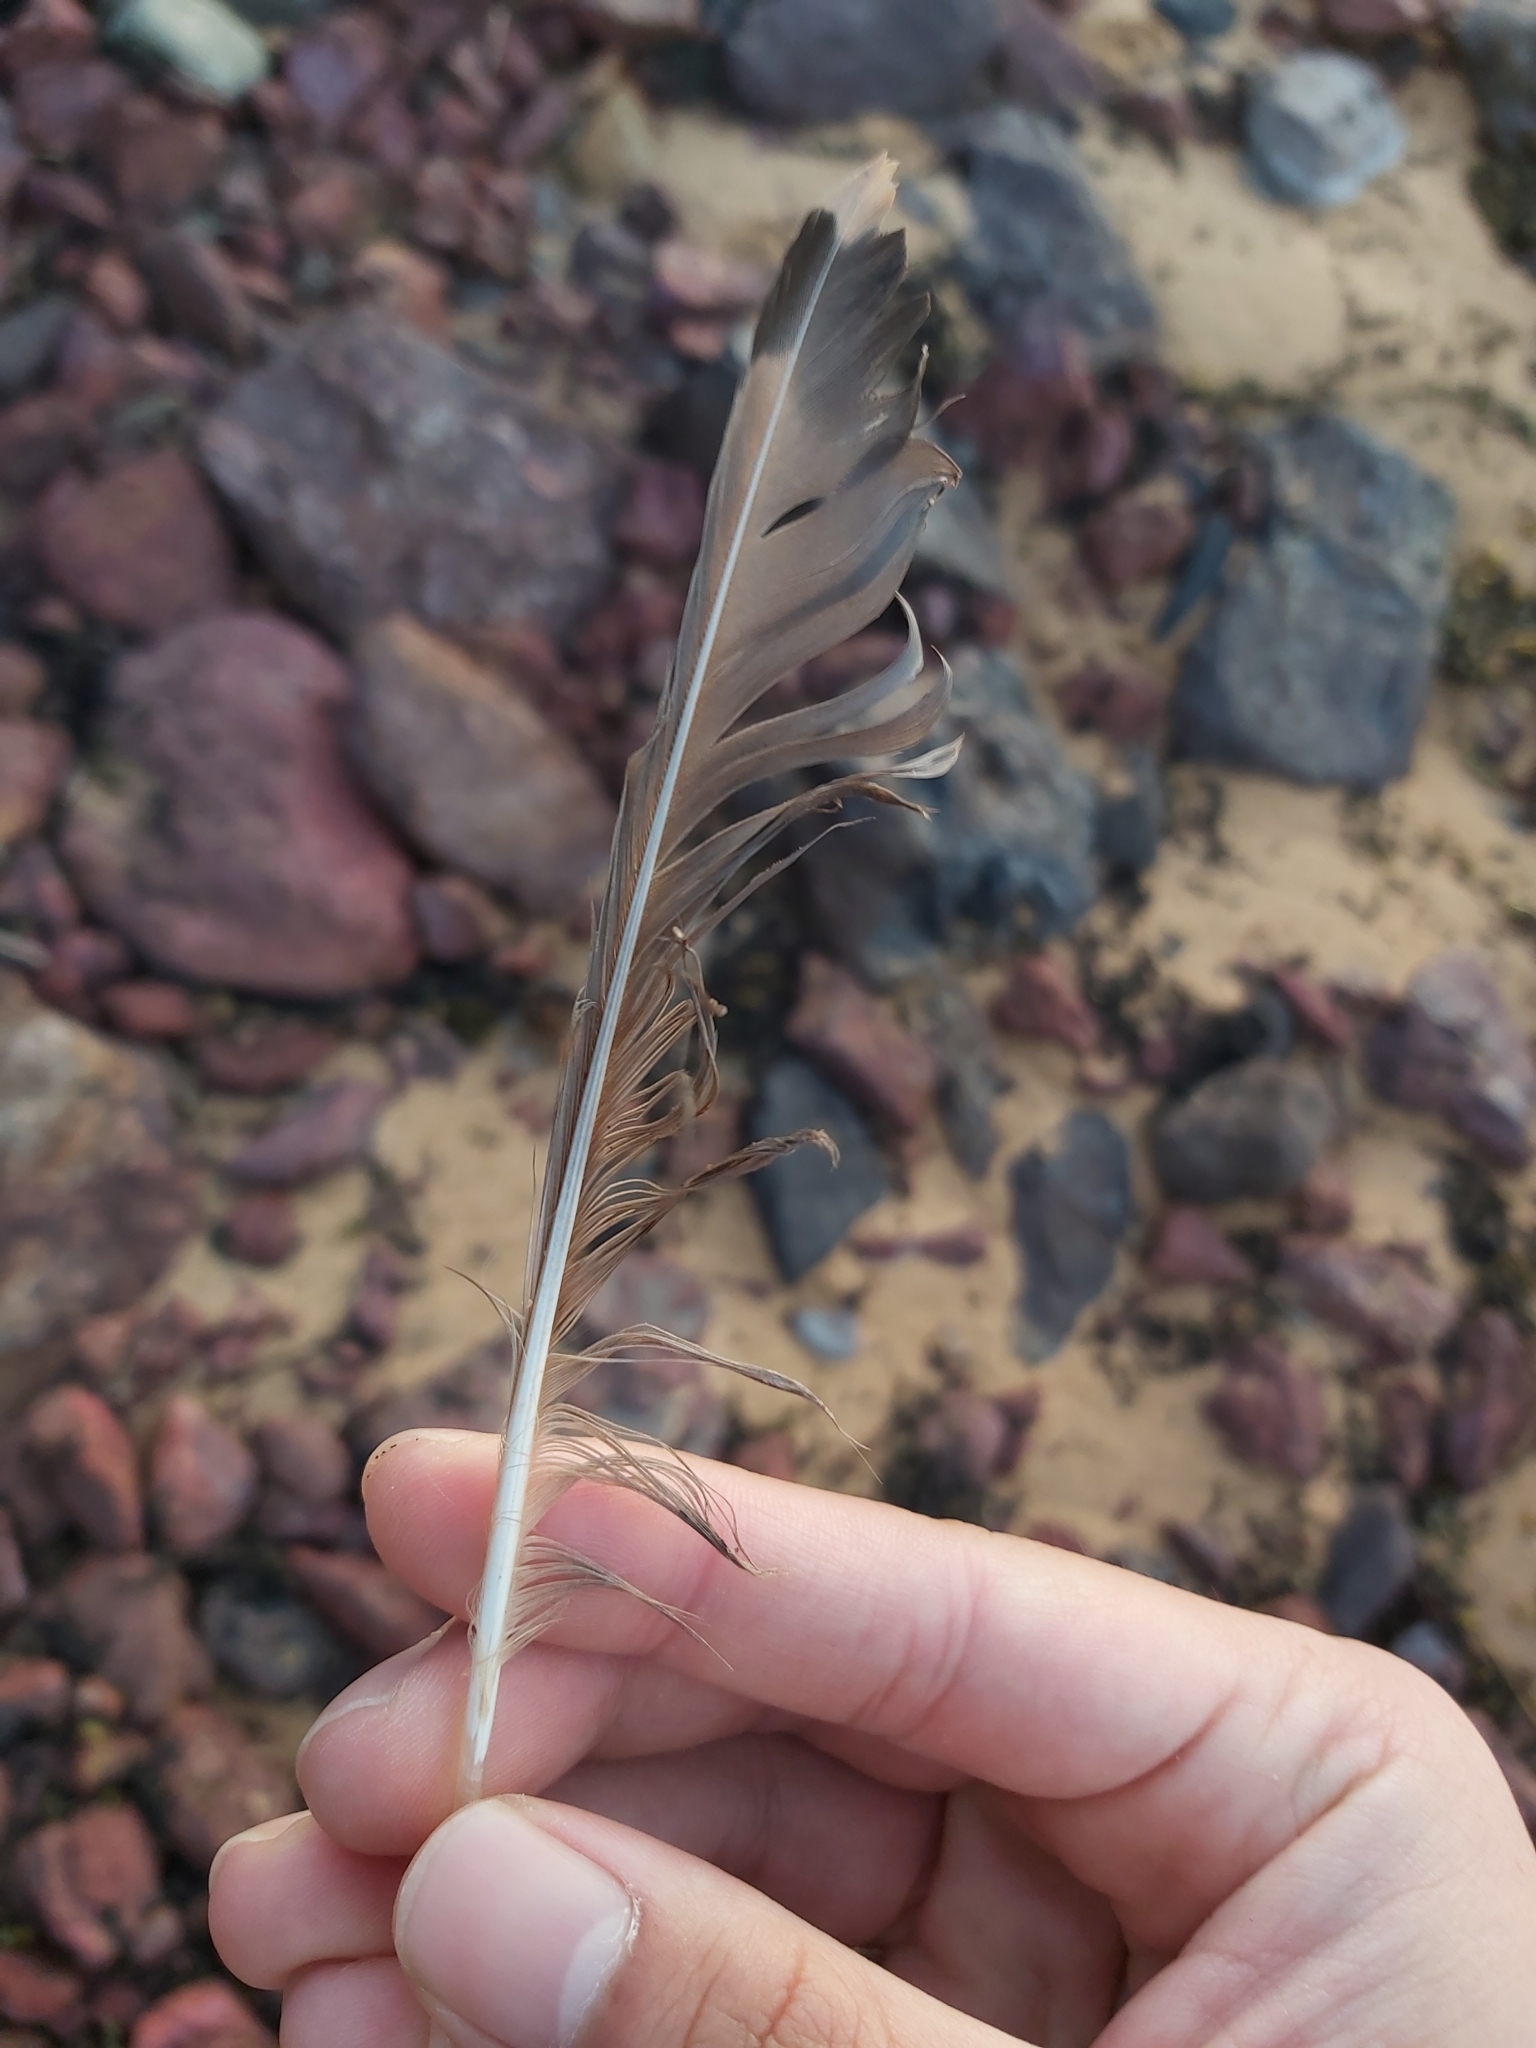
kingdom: Animalia
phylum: Chordata
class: Aves
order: Charadriiformes
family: Laridae
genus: Chroicocephalus
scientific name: Chroicocephalus novaehollandiae
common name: Silver gull
